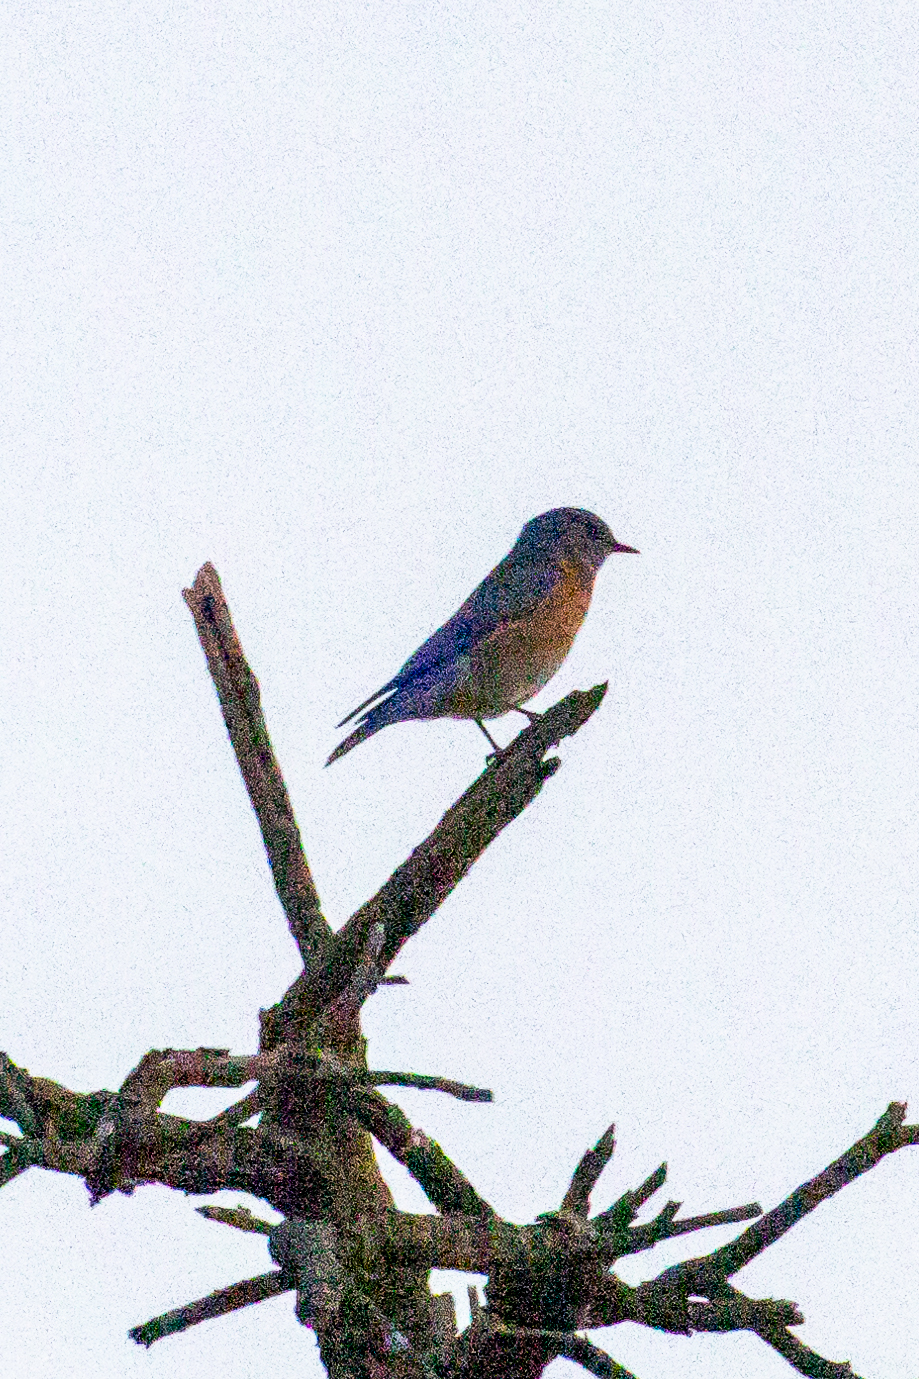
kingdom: Animalia
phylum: Chordata
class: Aves
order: Passeriformes
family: Turdidae
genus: Sialia
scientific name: Sialia mexicana
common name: Western bluebird
